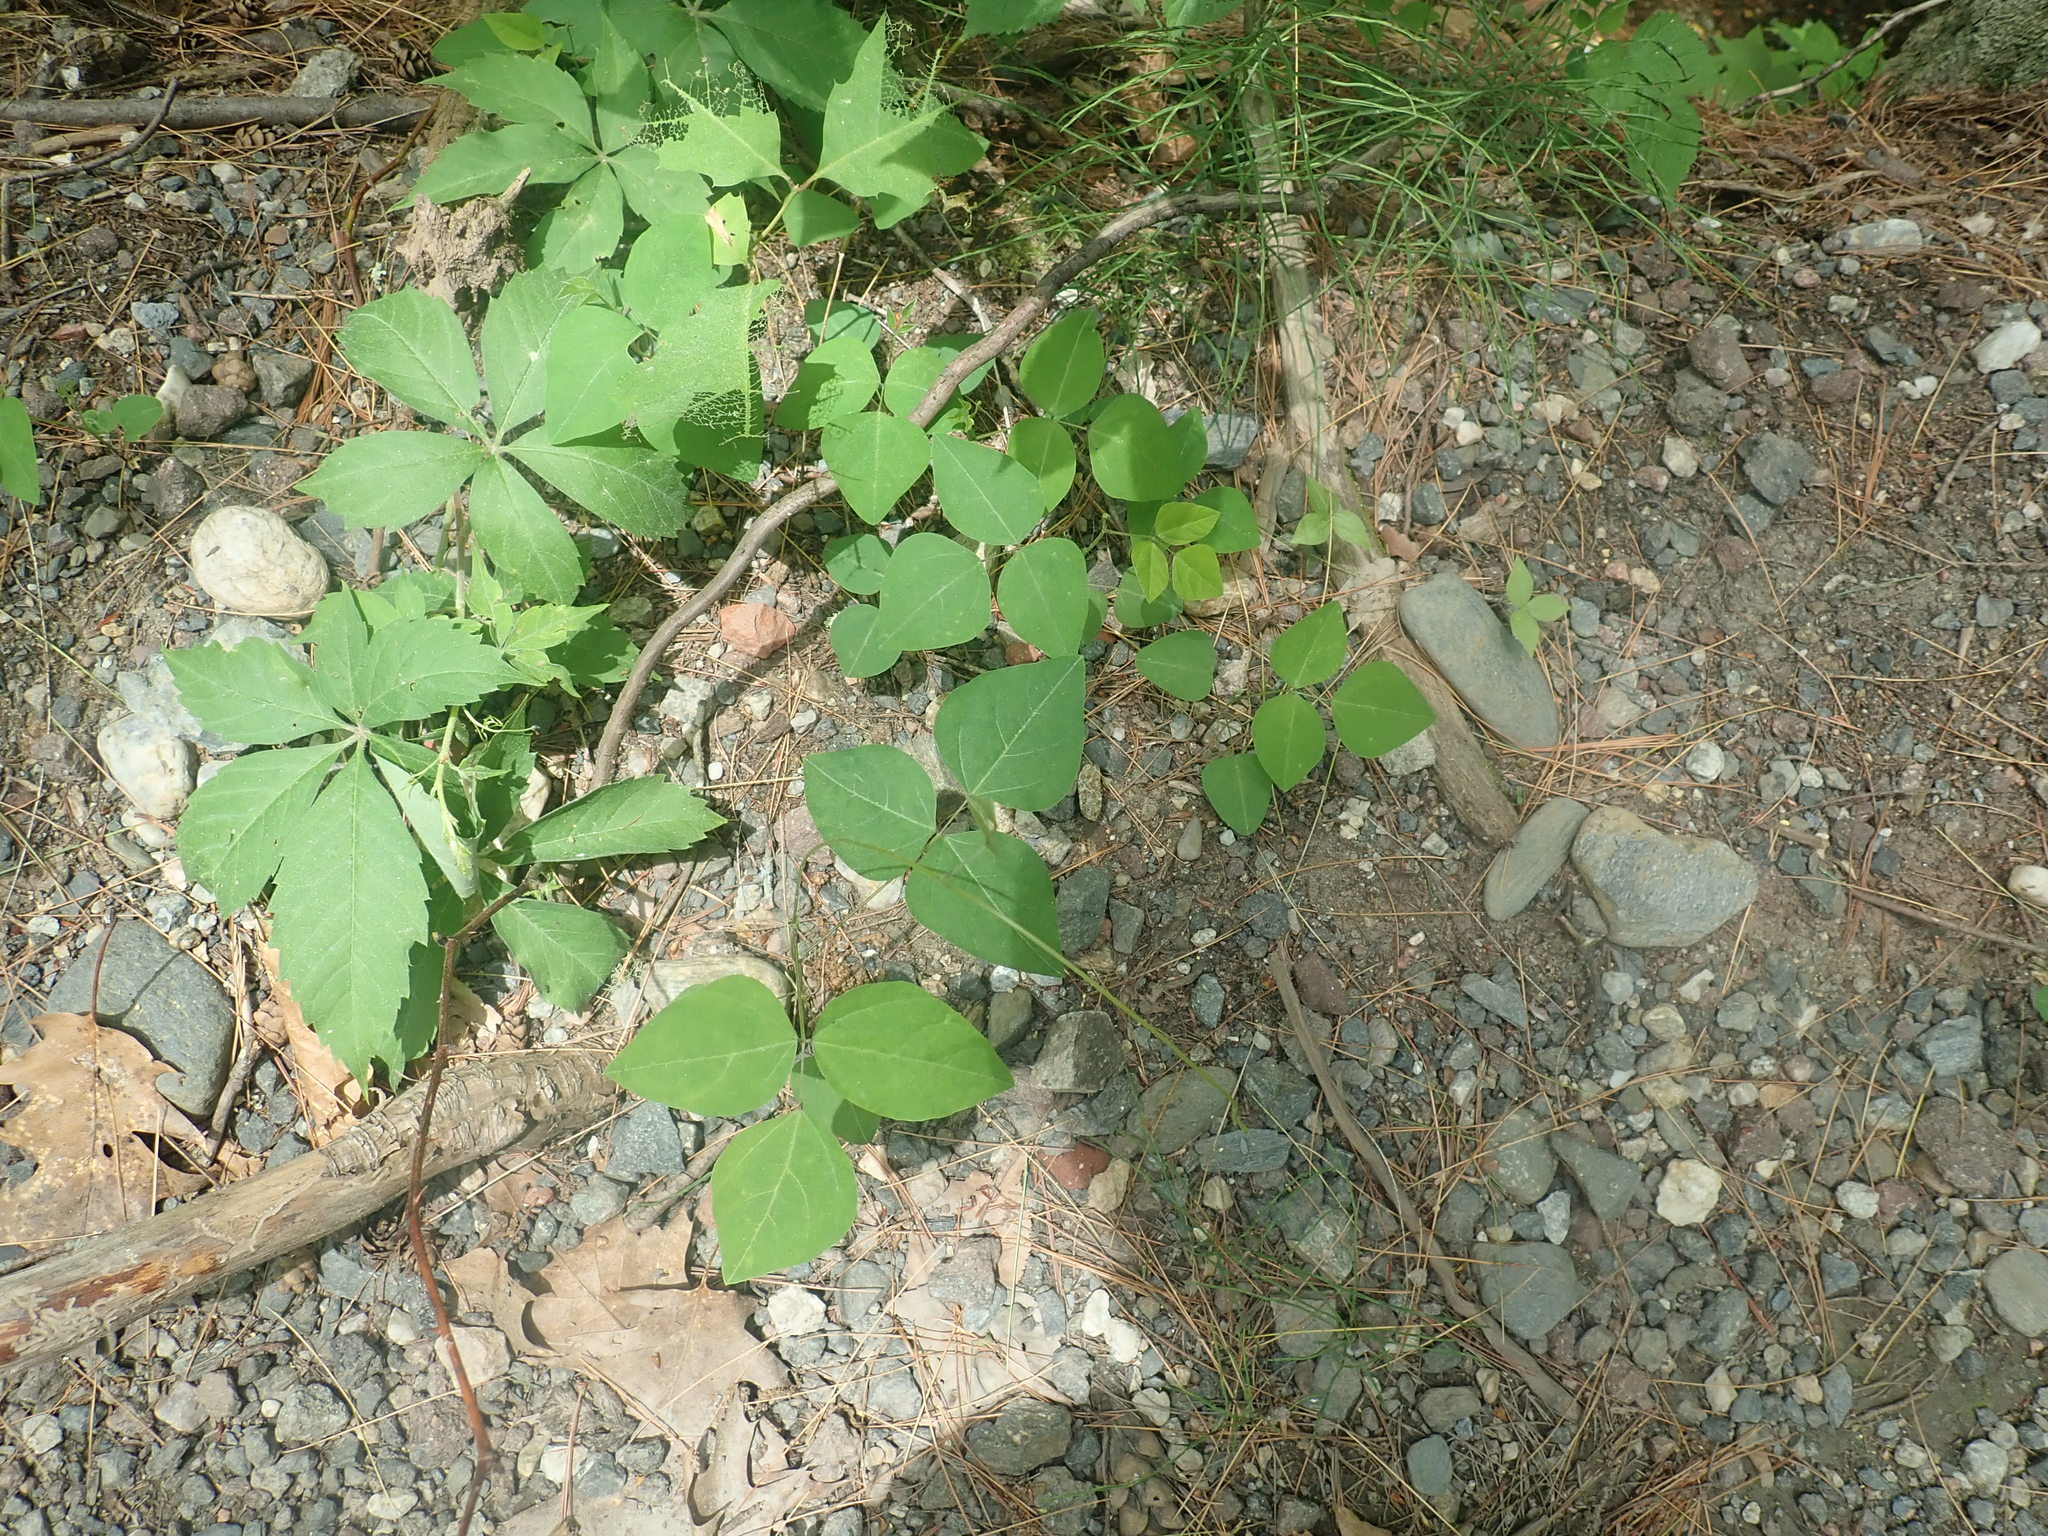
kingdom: Plantae
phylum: Tracheophyta
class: Magnoliopsida
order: Fabales
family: Fabaceae
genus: Amphicarpaea
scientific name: Amphicarpaea bracteata
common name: American hog peanut
